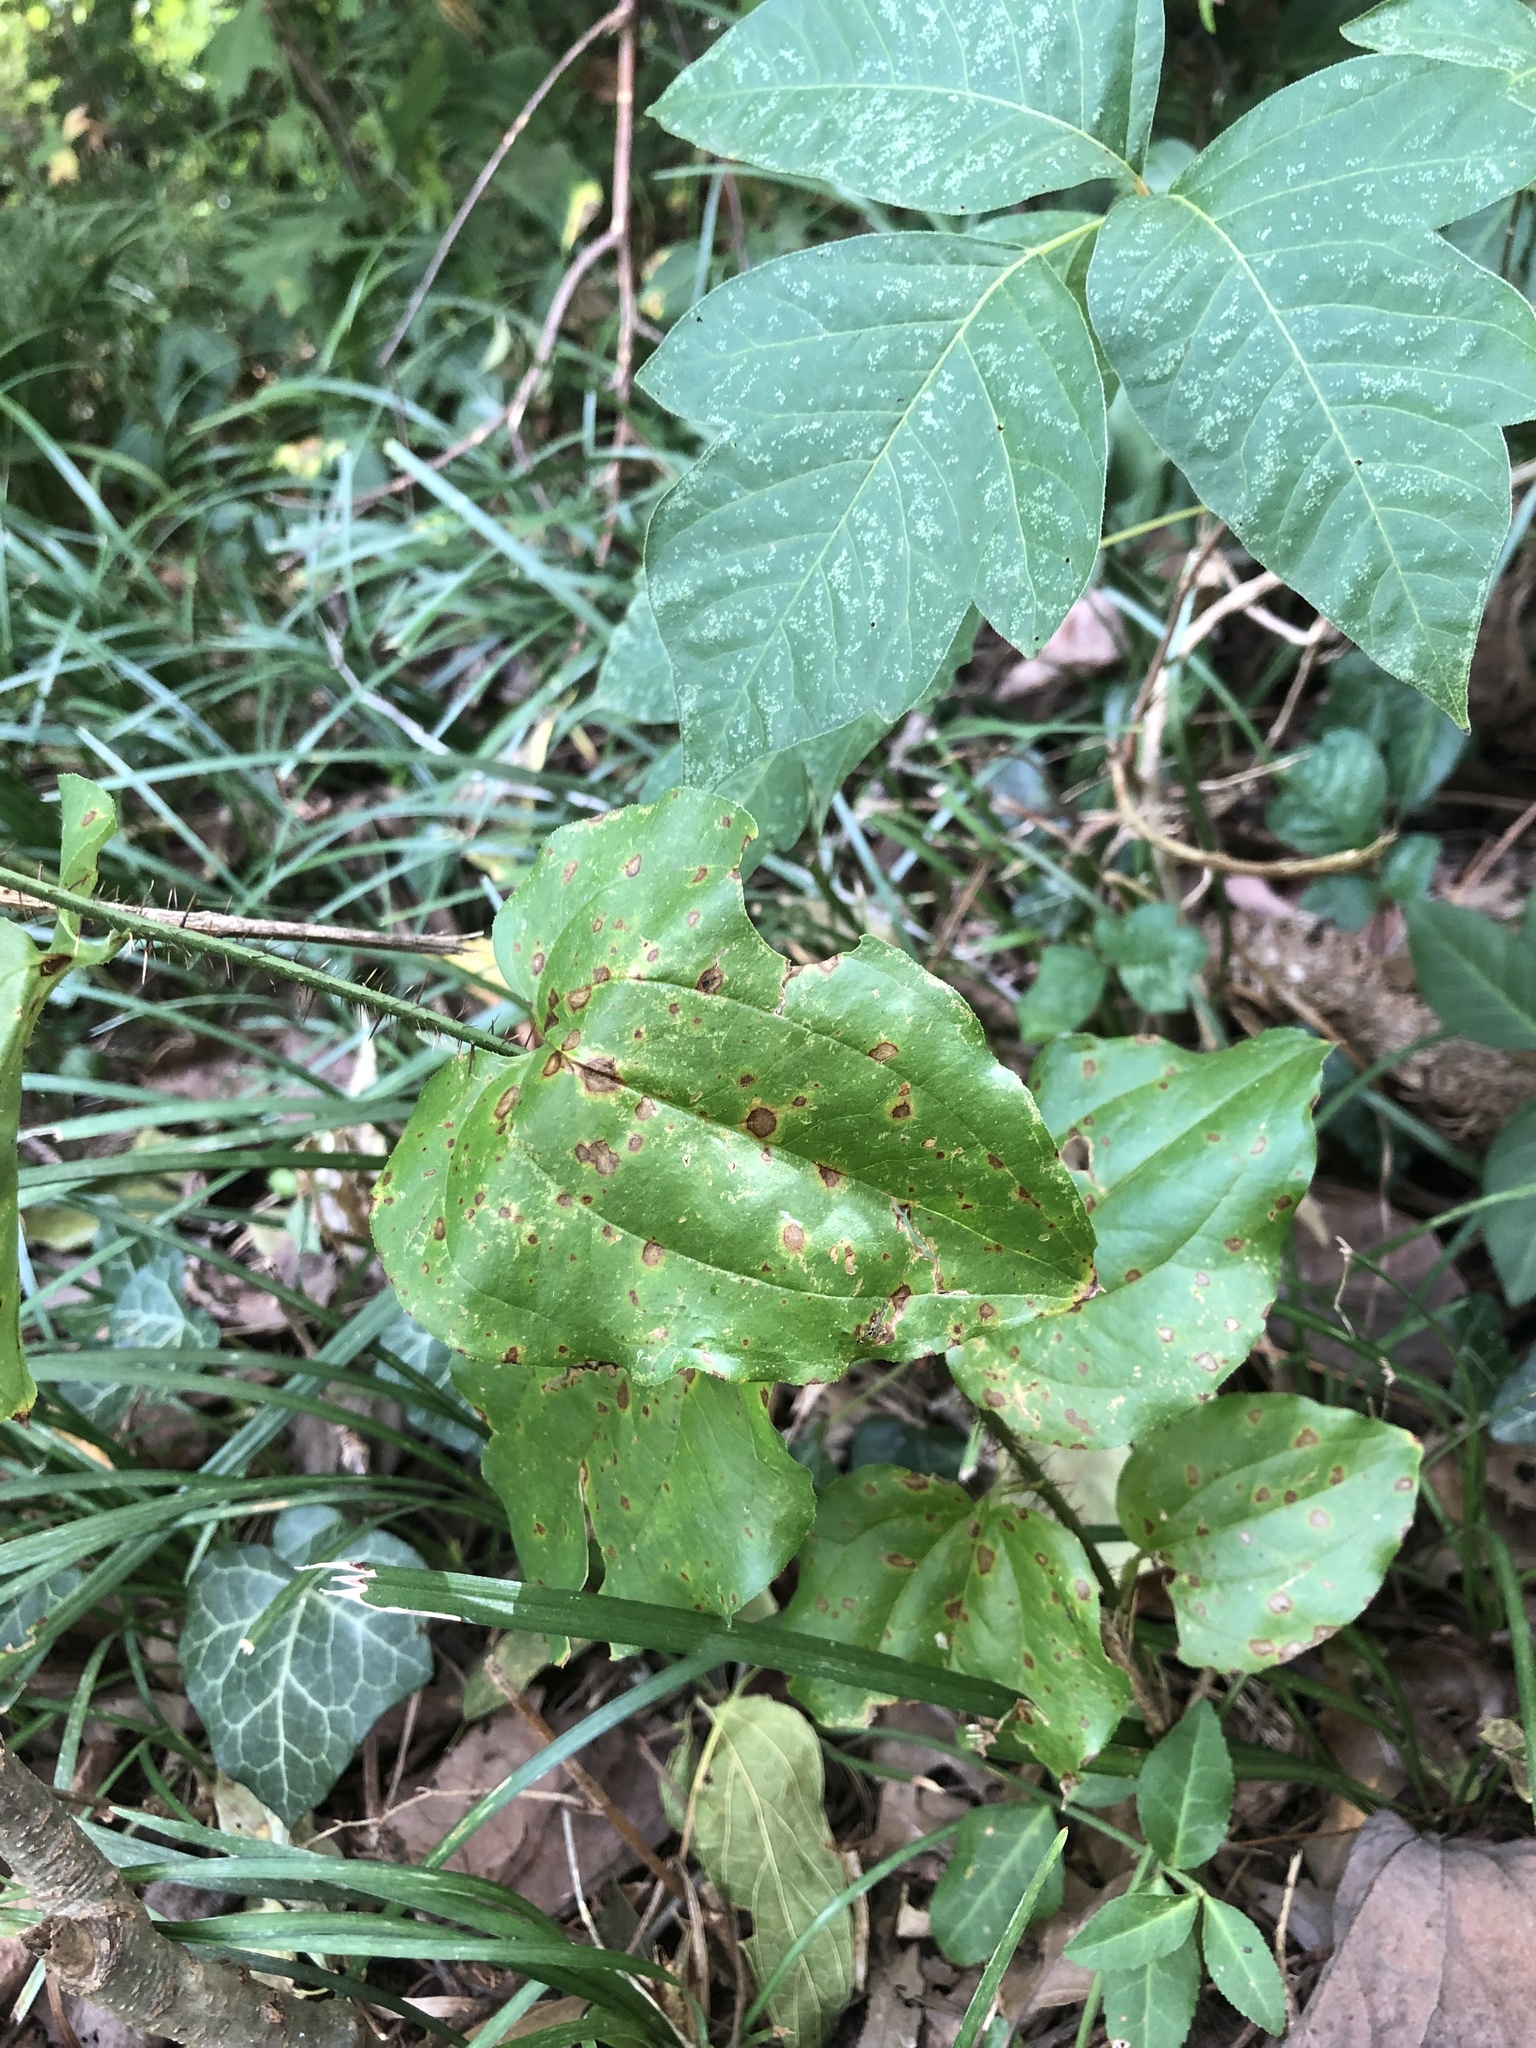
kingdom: Plantae
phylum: Tracheophyta
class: Liliopsida
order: Liliales
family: Smilacaceae
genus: Smilax
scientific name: Smilax tamnoides
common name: Hellfetter
